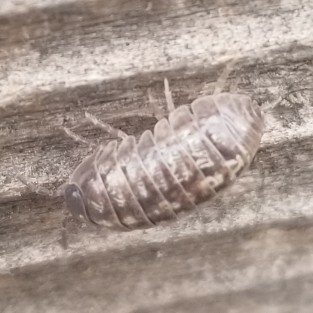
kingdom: Animalia
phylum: Arthropoda
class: Malacostraca
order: Isopoda
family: Armadillidiidae
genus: Armadillidium
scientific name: Armadillidium vulgare
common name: Common pill woodlouse
